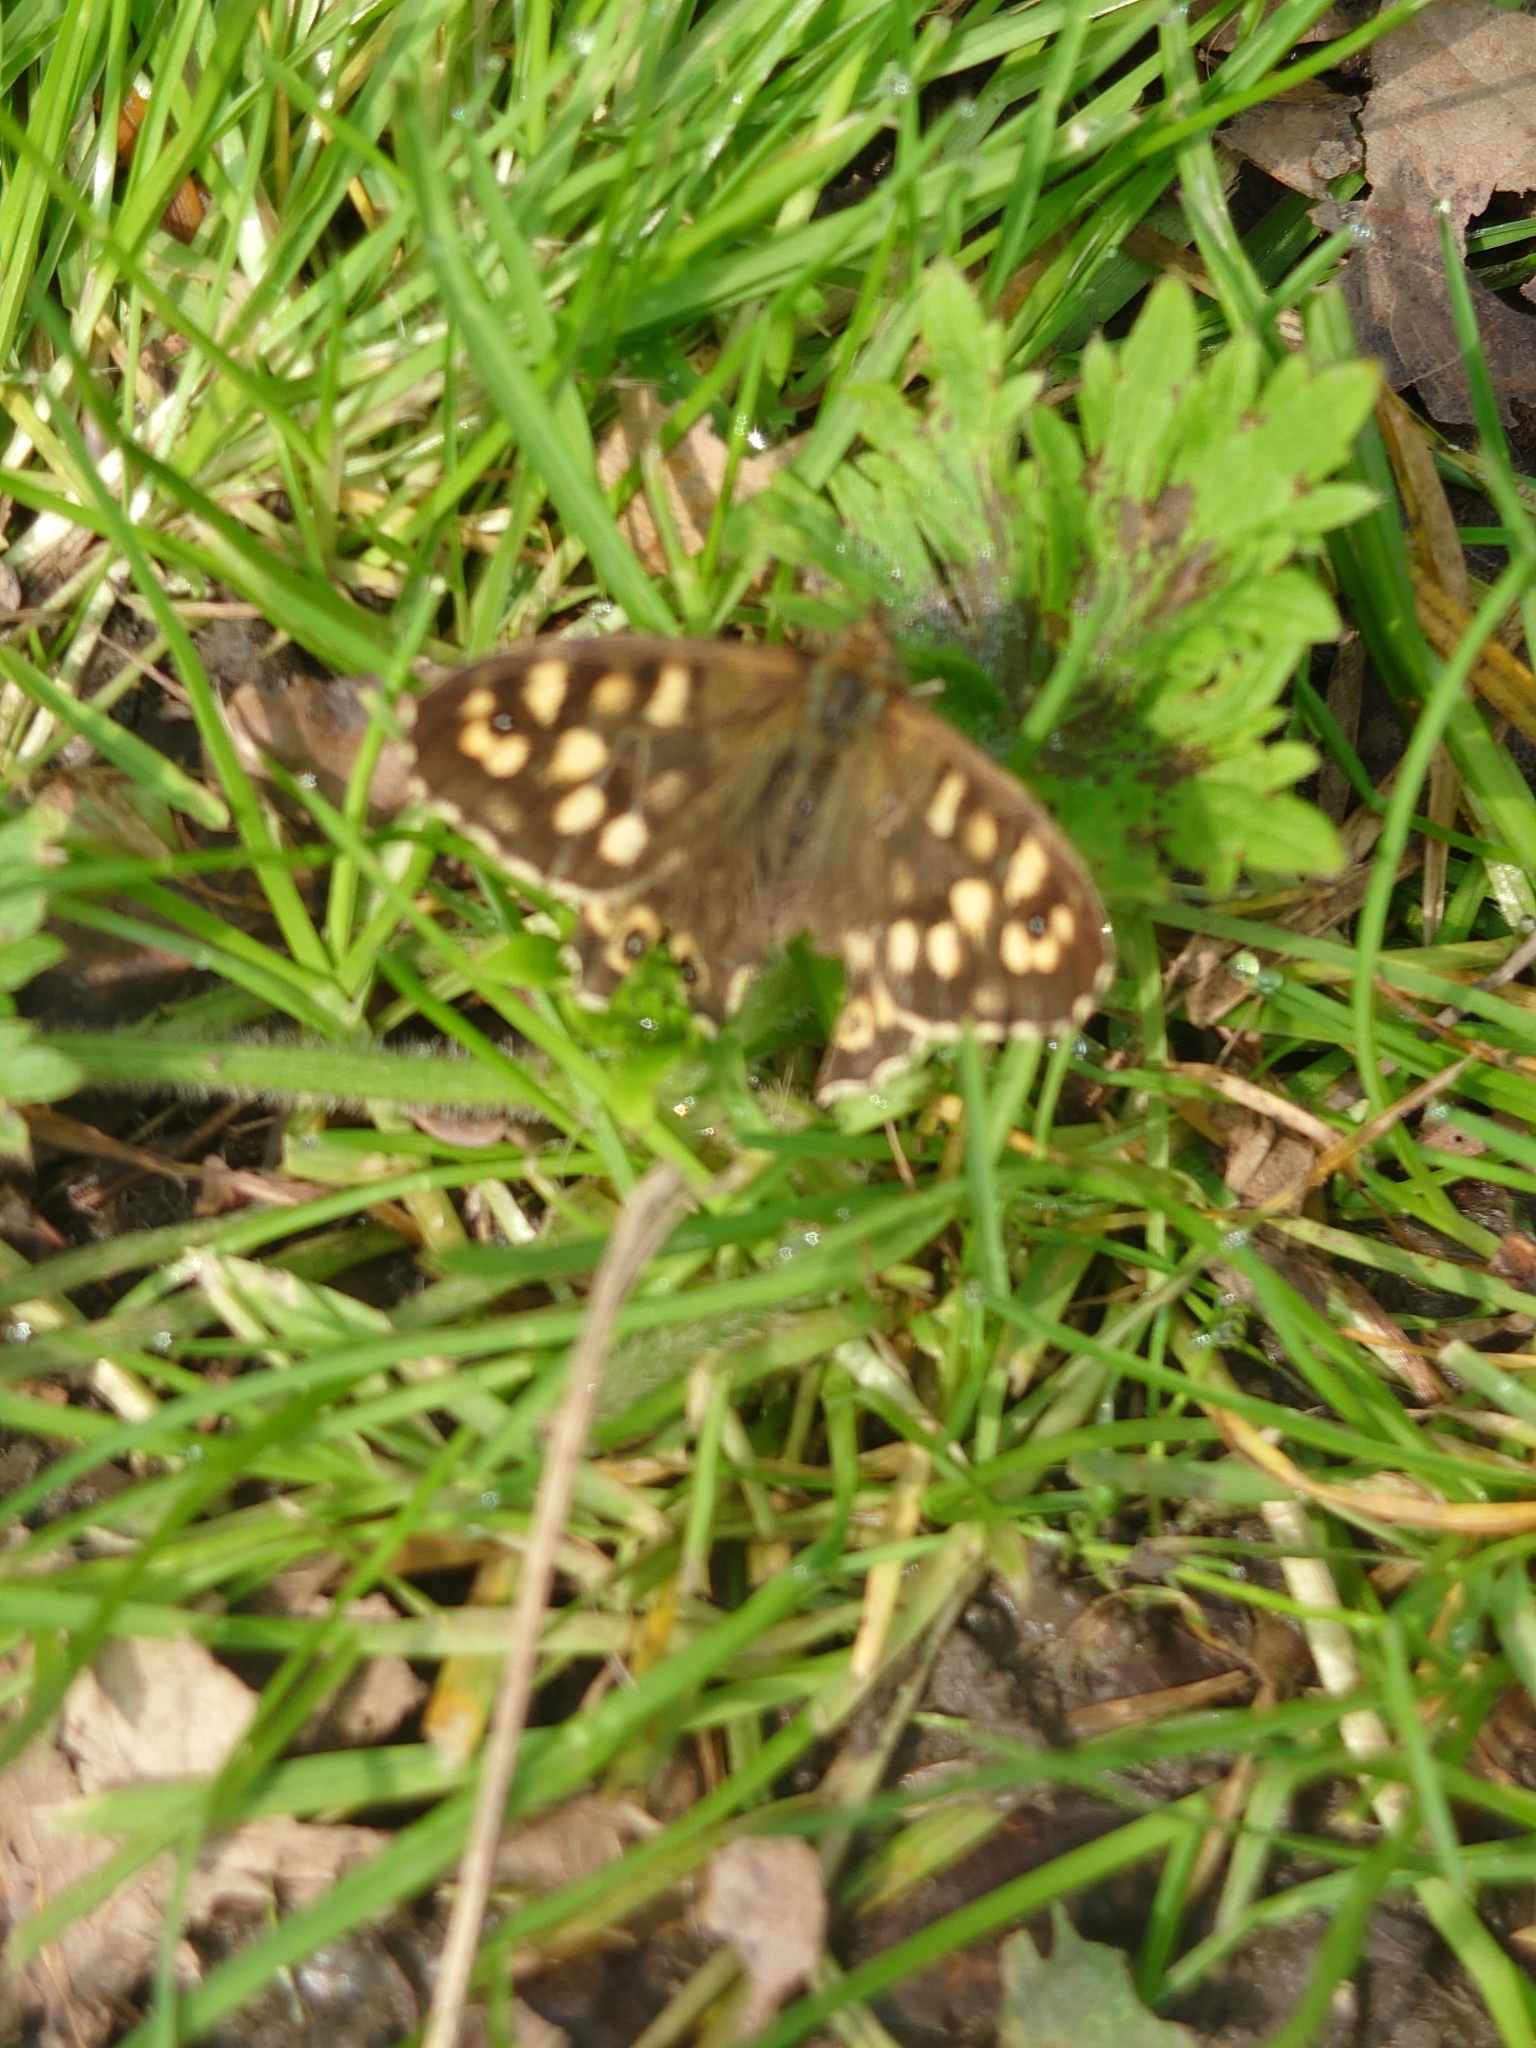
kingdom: Animalia
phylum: Arthropoda
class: Insecta
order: Lepidoptera
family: Nymphalidae
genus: Pararge
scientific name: Pararge aegeria
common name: Speckled wood
